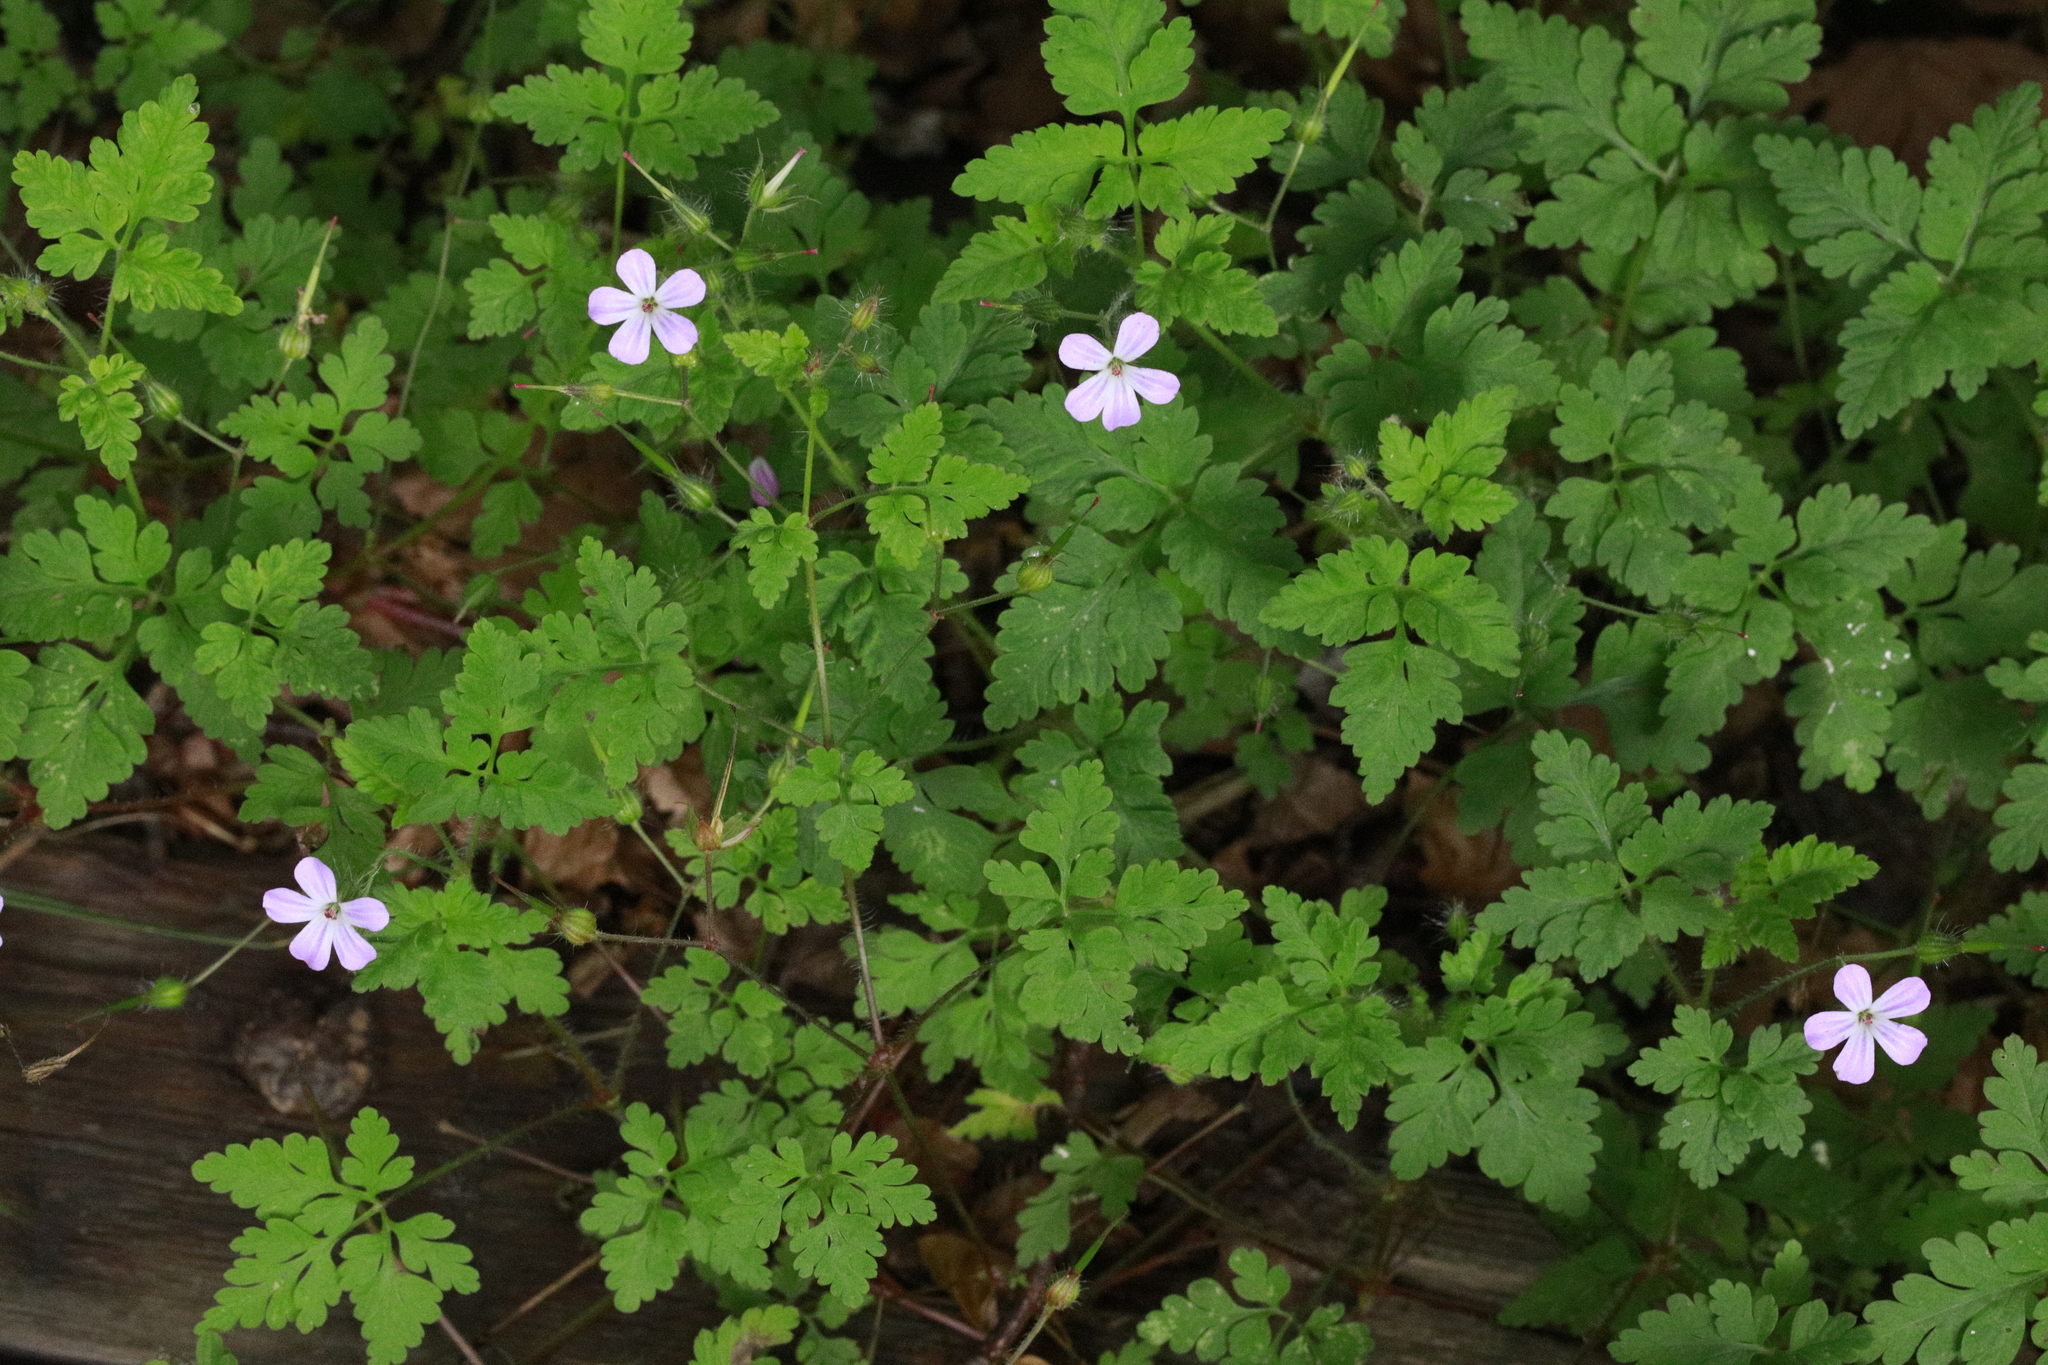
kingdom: Plantae
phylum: Tracheophyta
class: Magnoliopsida
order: Geraniales
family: Geraniaceae
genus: Geranium
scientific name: Geranium robertianum
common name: Herb-robert
